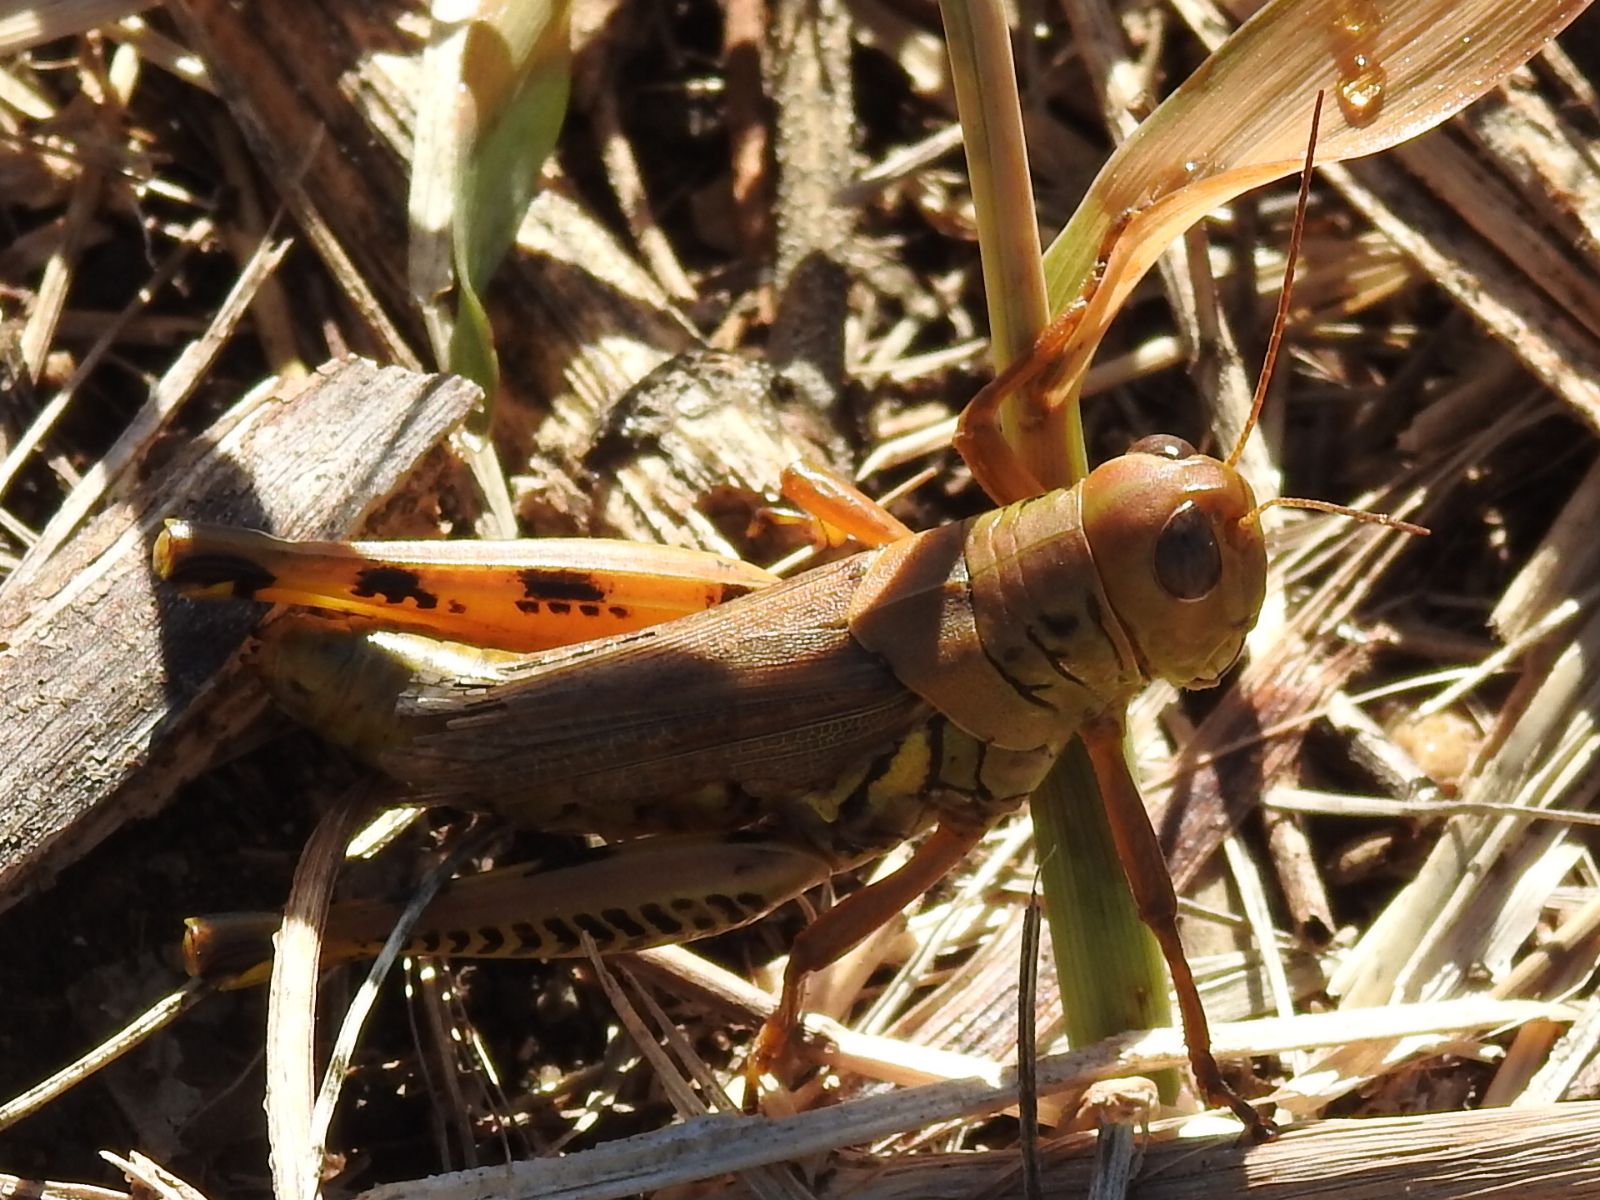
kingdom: Animalia
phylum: Arthropoda
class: Insecta
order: Orthoptera
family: Acrididae
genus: Melanoplus
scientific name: Melanoplus differentialis
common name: Differential grasshopper
